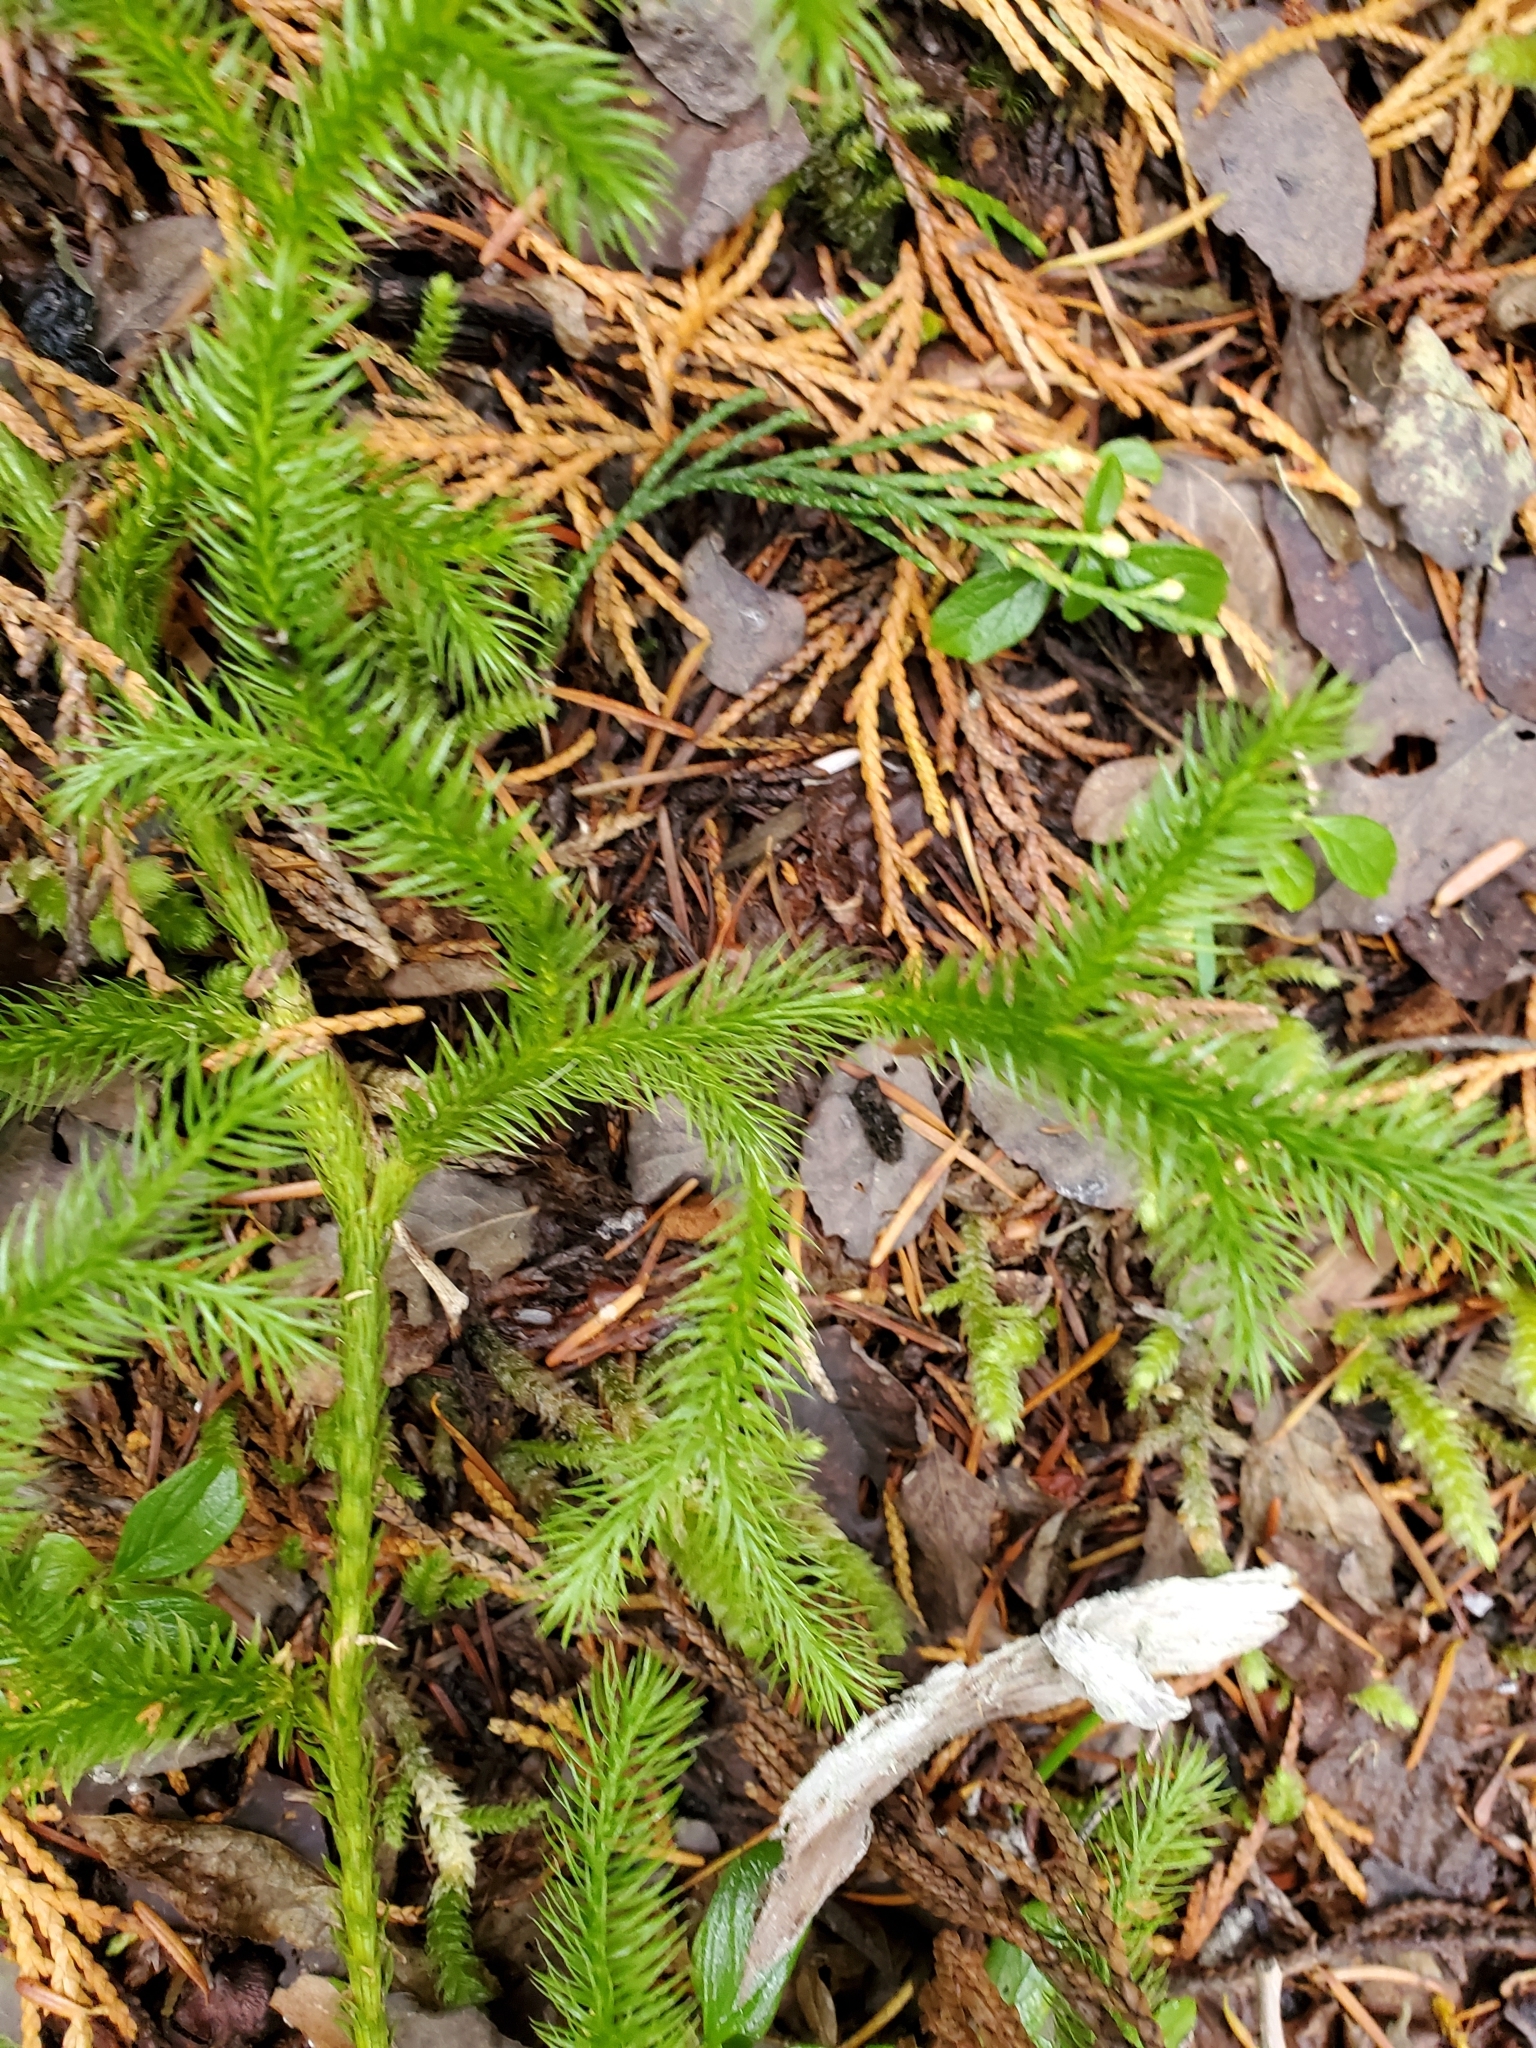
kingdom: Plantae
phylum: Tracheophyta
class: Lycopodiopsida
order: Lycopodiales
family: Lycopodiaceae
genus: Lycopodium
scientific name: Lycopodium clavatum
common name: Stag's-horn clubmoss
